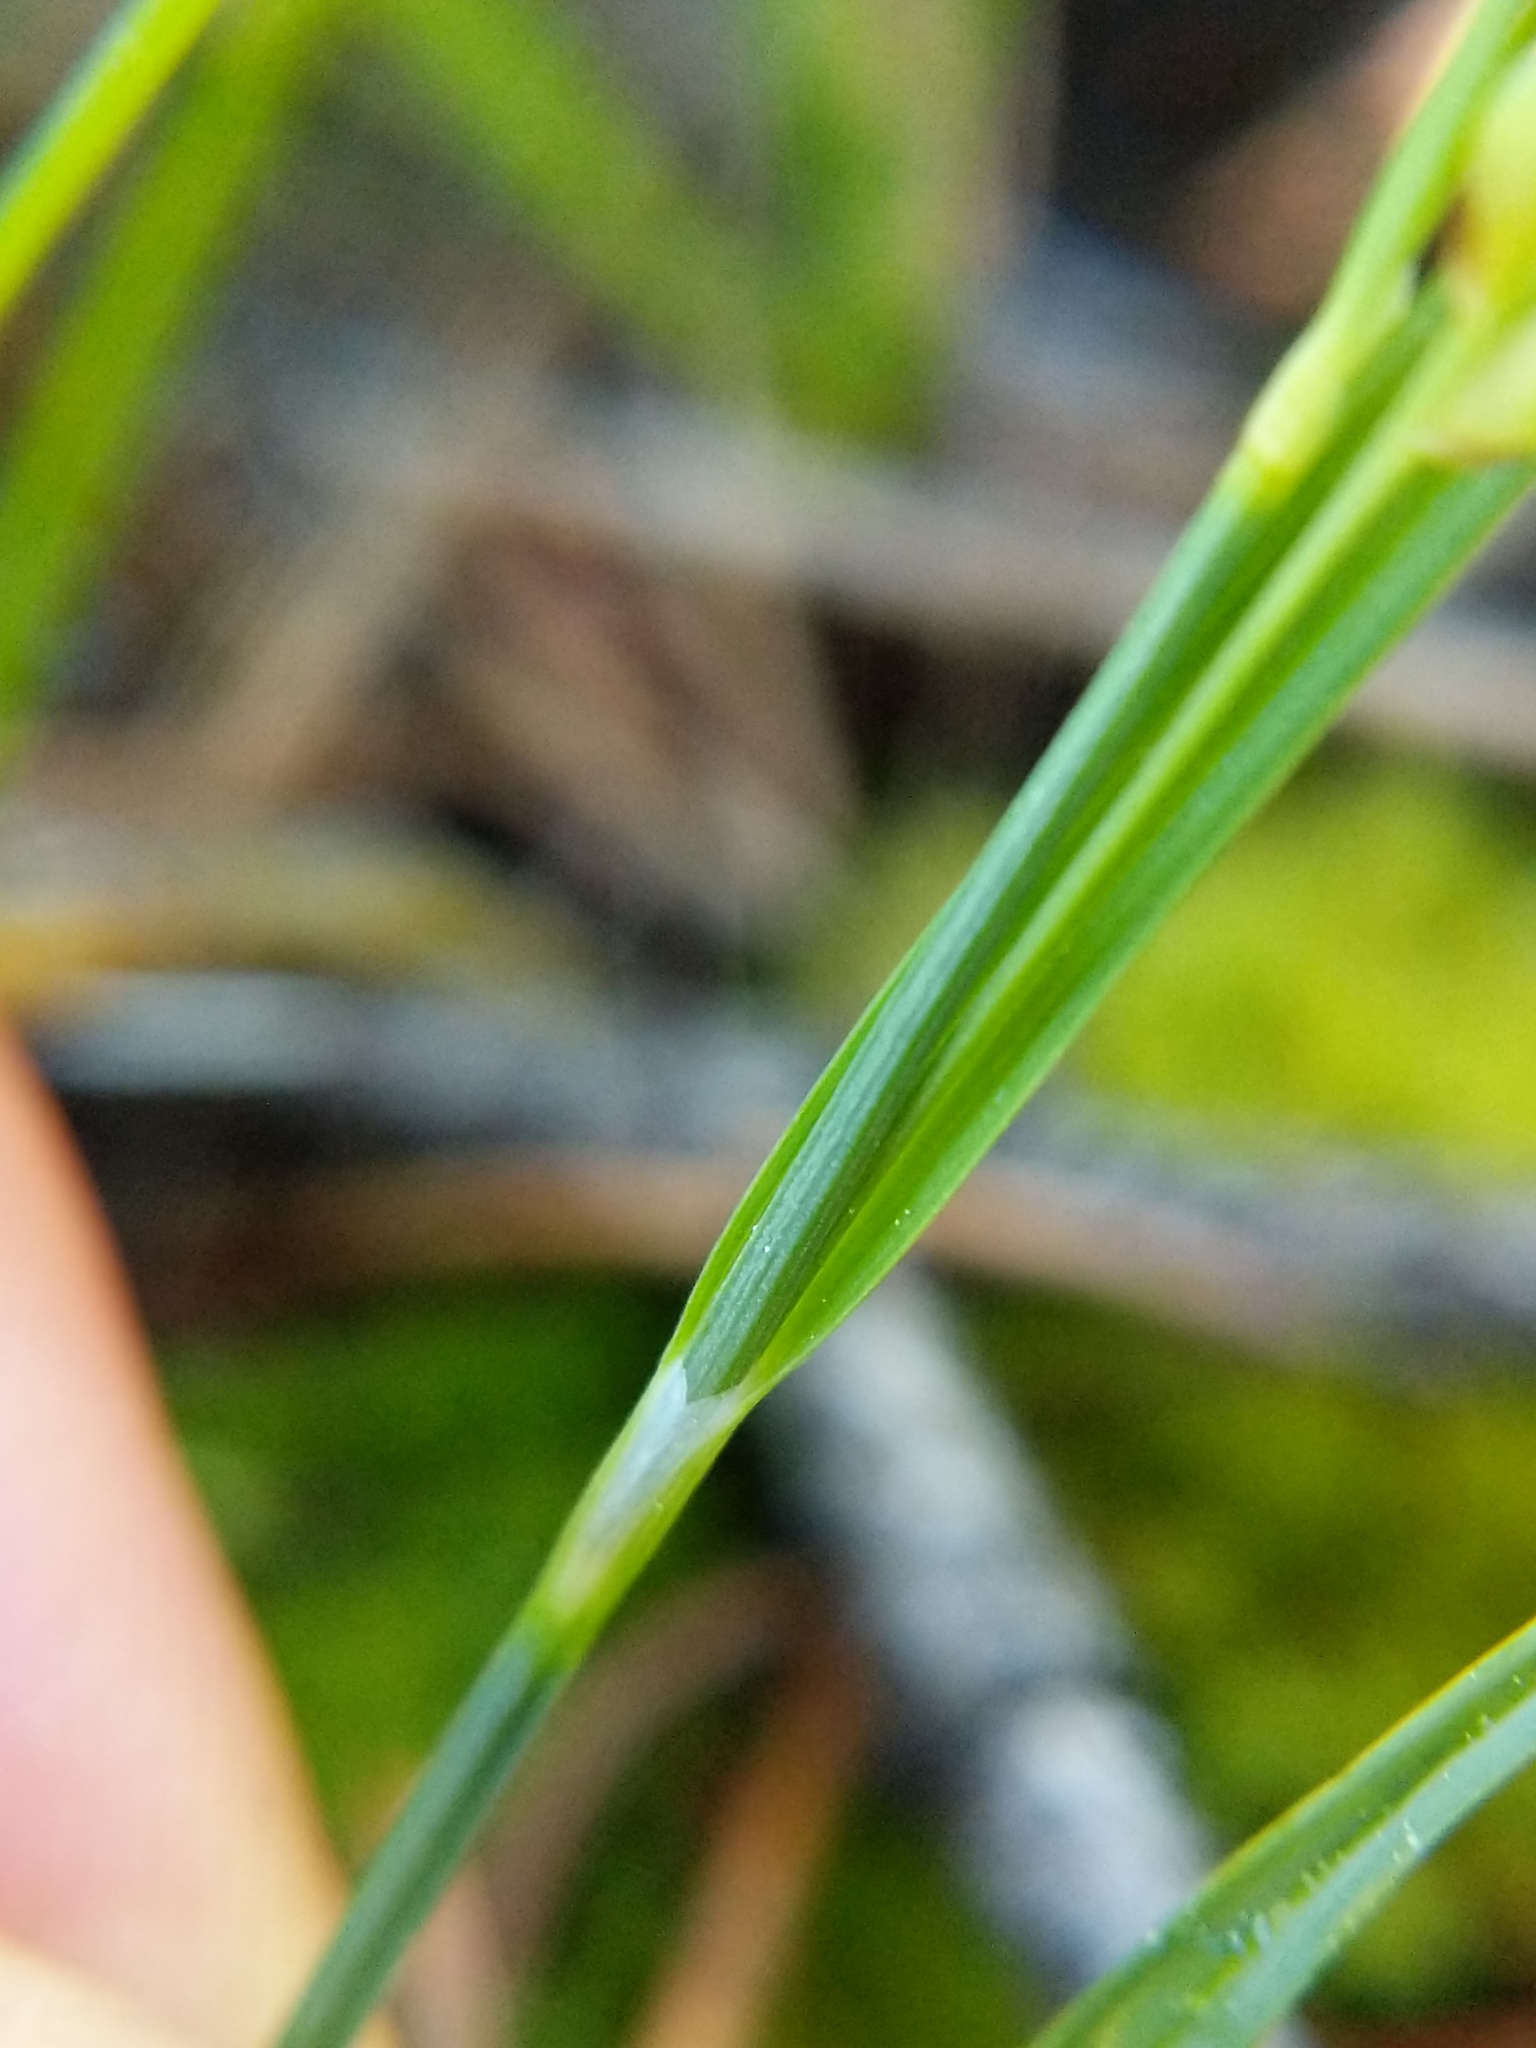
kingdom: Plantae
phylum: Tracheophyta
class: Liliopsida
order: Poales
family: Cyperaceae
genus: Carex
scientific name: Carex aurea
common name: Golden sedge
